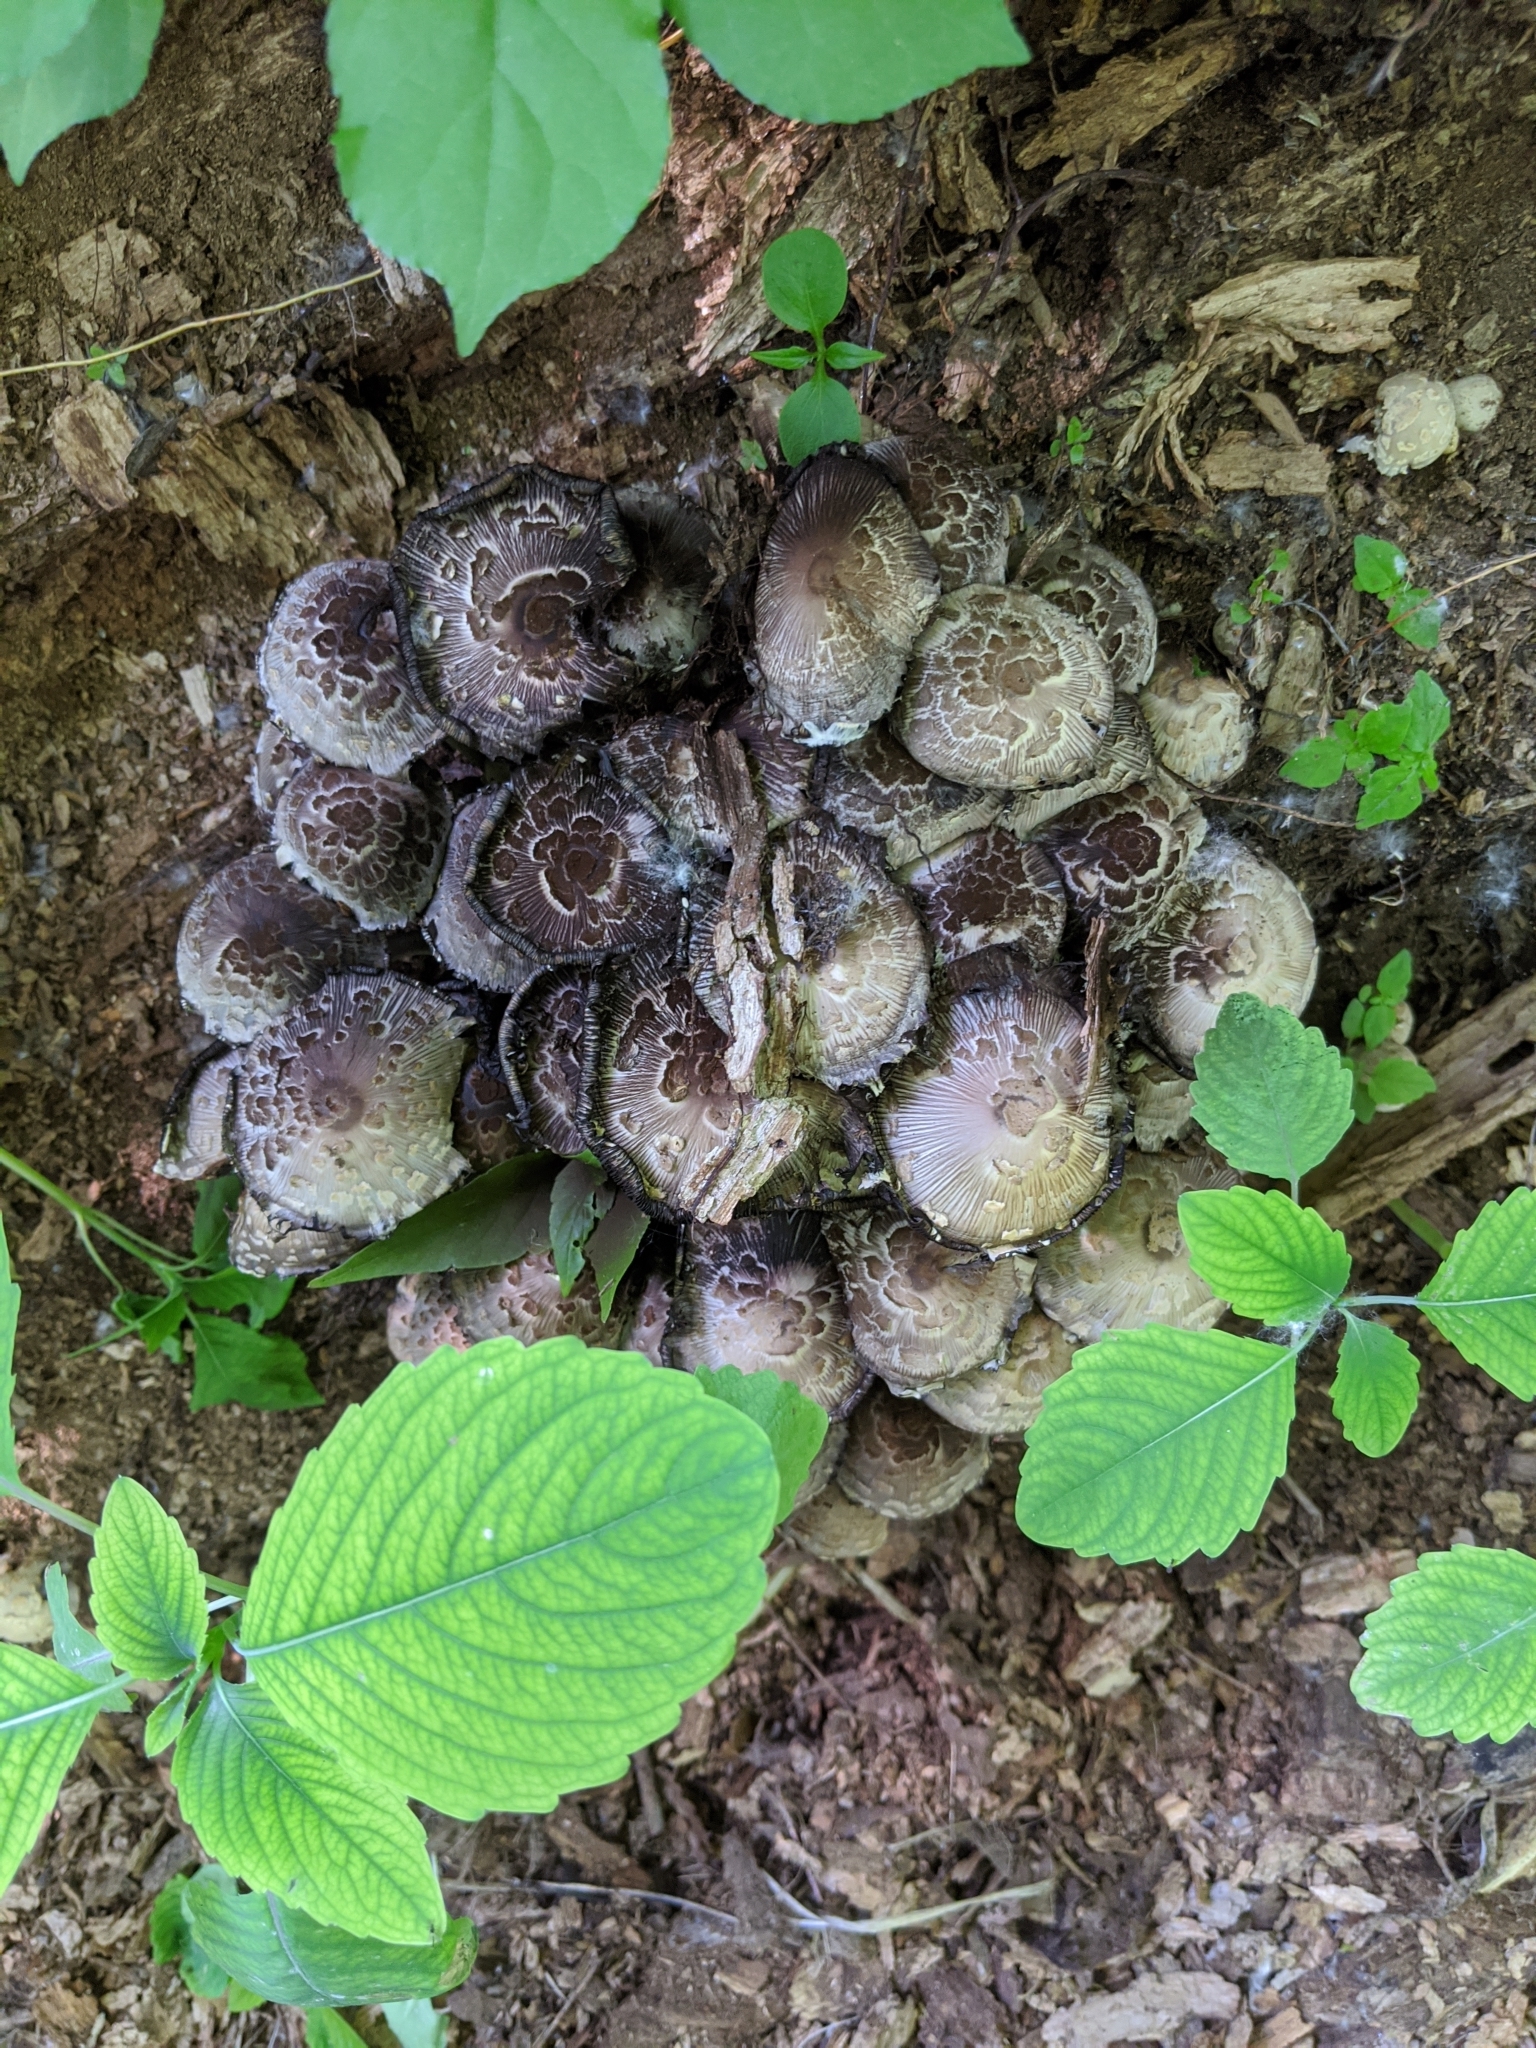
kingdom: Fungi
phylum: Basidiomycota
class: Agaricomycetes
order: Agaricales
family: Psathyrellaceae
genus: Coprinopsis
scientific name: Coprinopsis variegata
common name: Scaly ink cap
